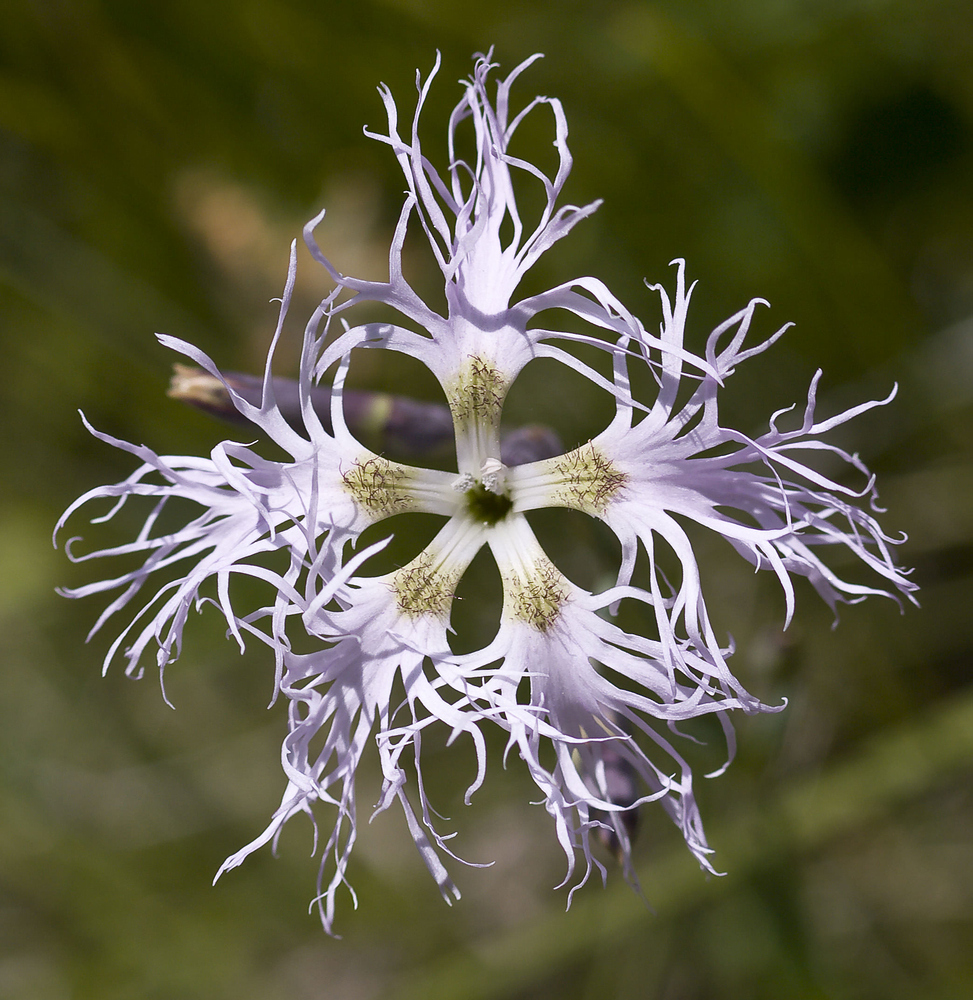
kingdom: Plantae
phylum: Tracheophyta
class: Magnoliopsida
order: Caryophyllales
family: Caryophyllaceae
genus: Dianthus
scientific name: Dianthus superbus
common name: Fringed pink
